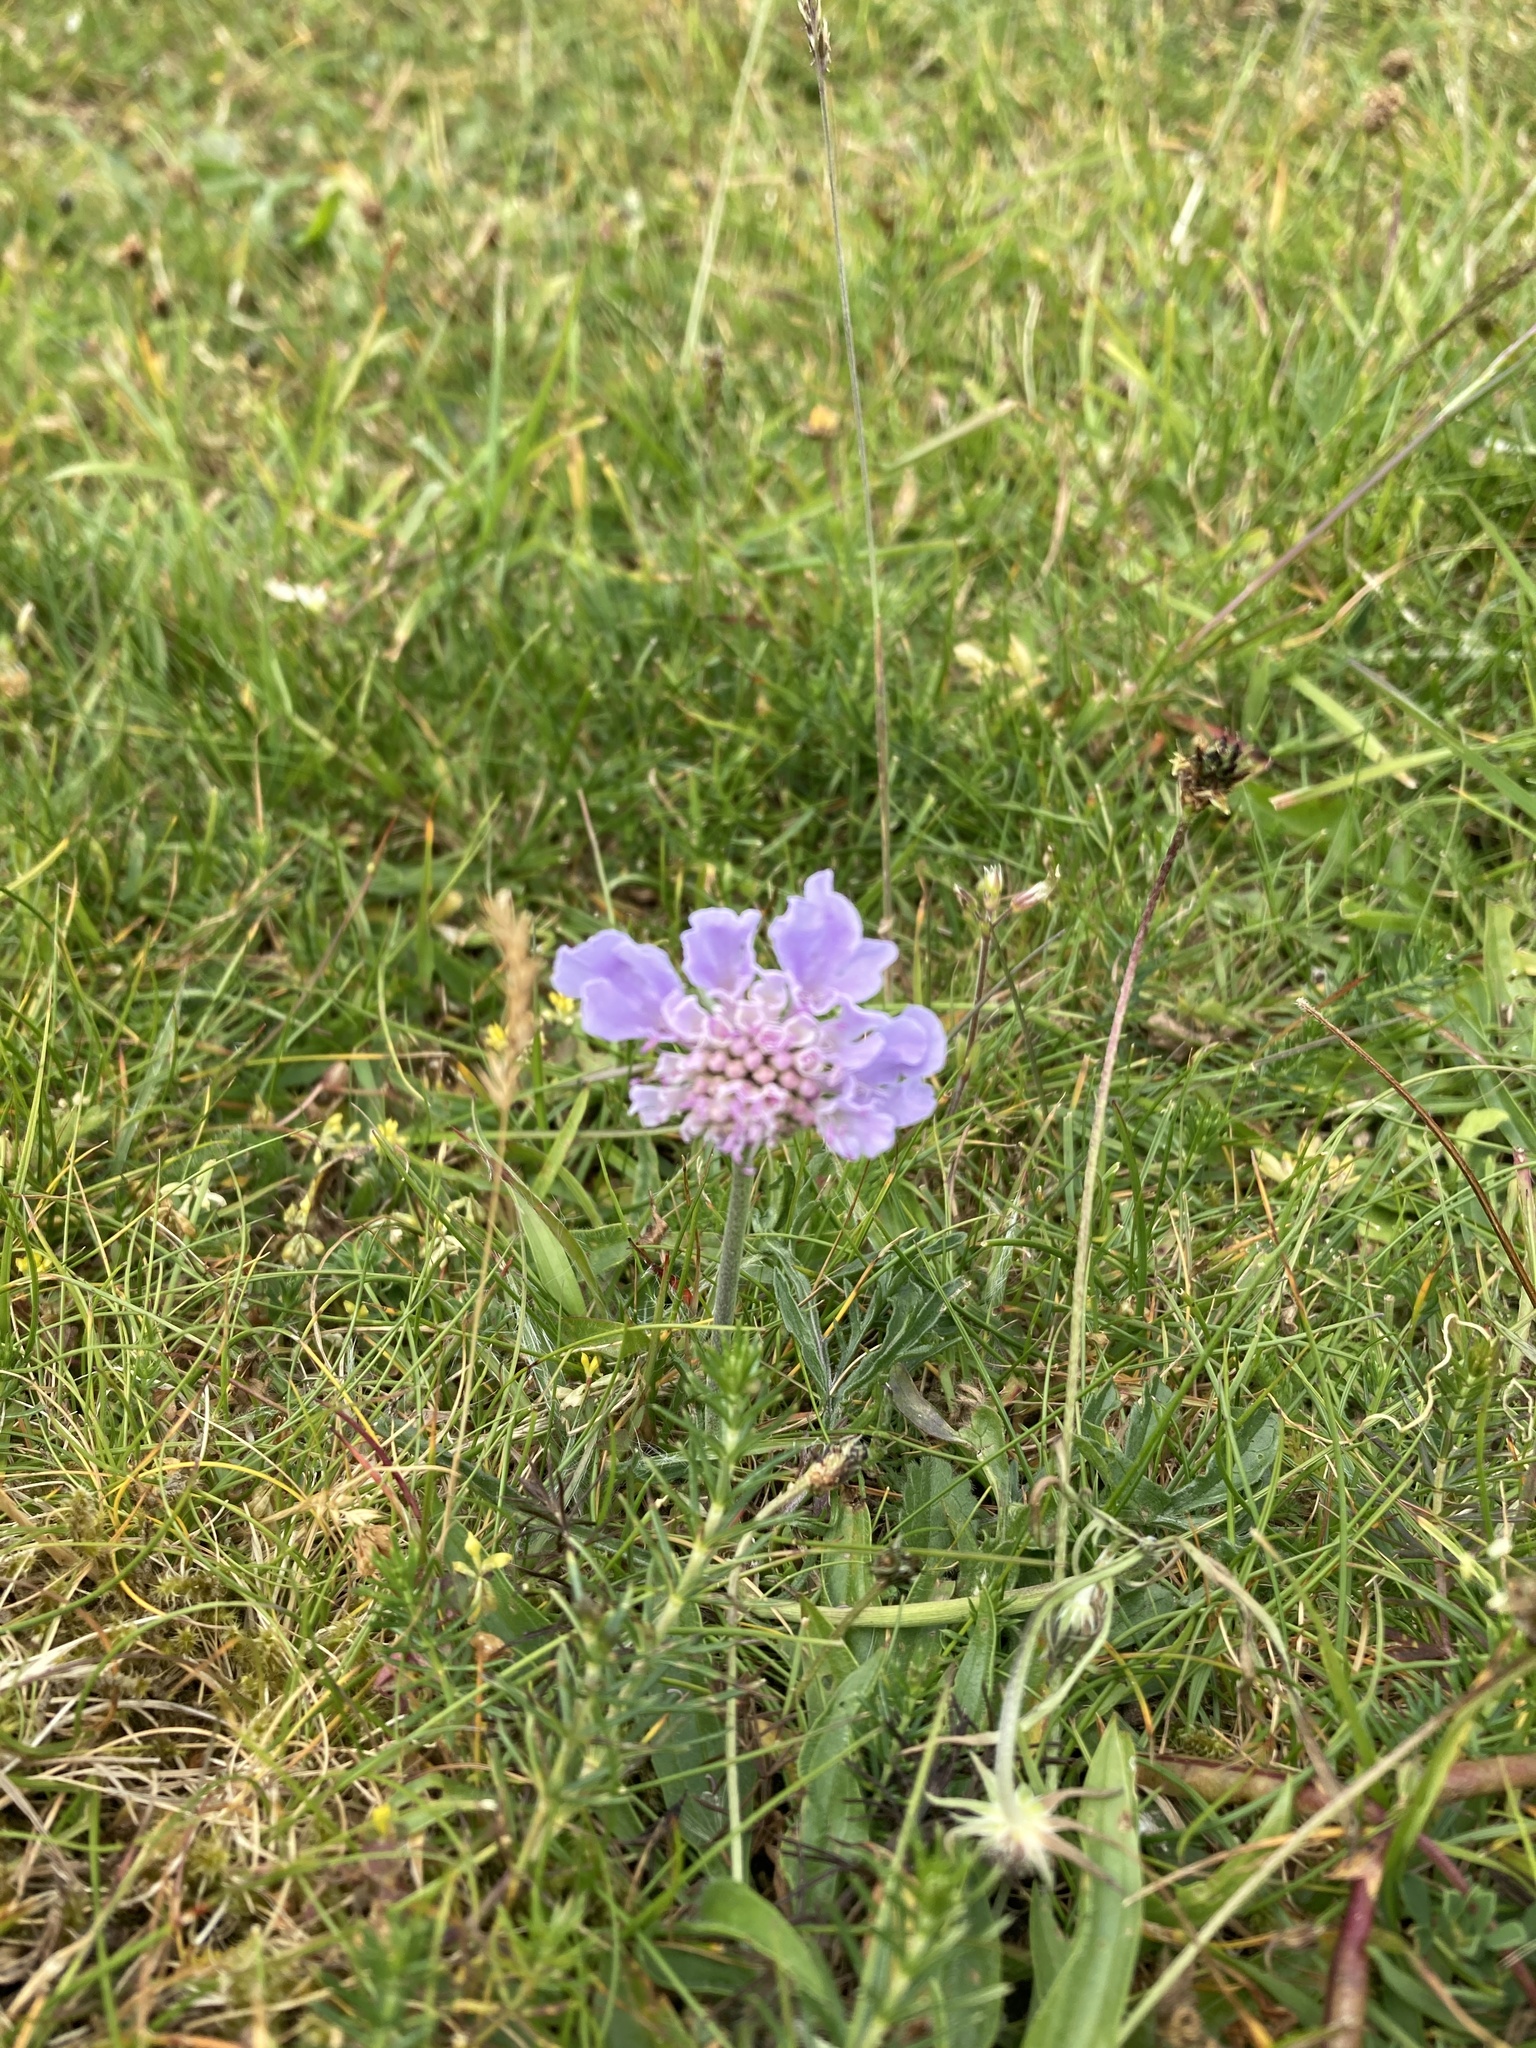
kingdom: Plantae
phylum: Tracheophyta
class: Magnoliopsida
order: Dipsacales
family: Caprifoliaceae
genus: Scabiosa
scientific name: Scabiosa columbaria
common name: Small scabious
